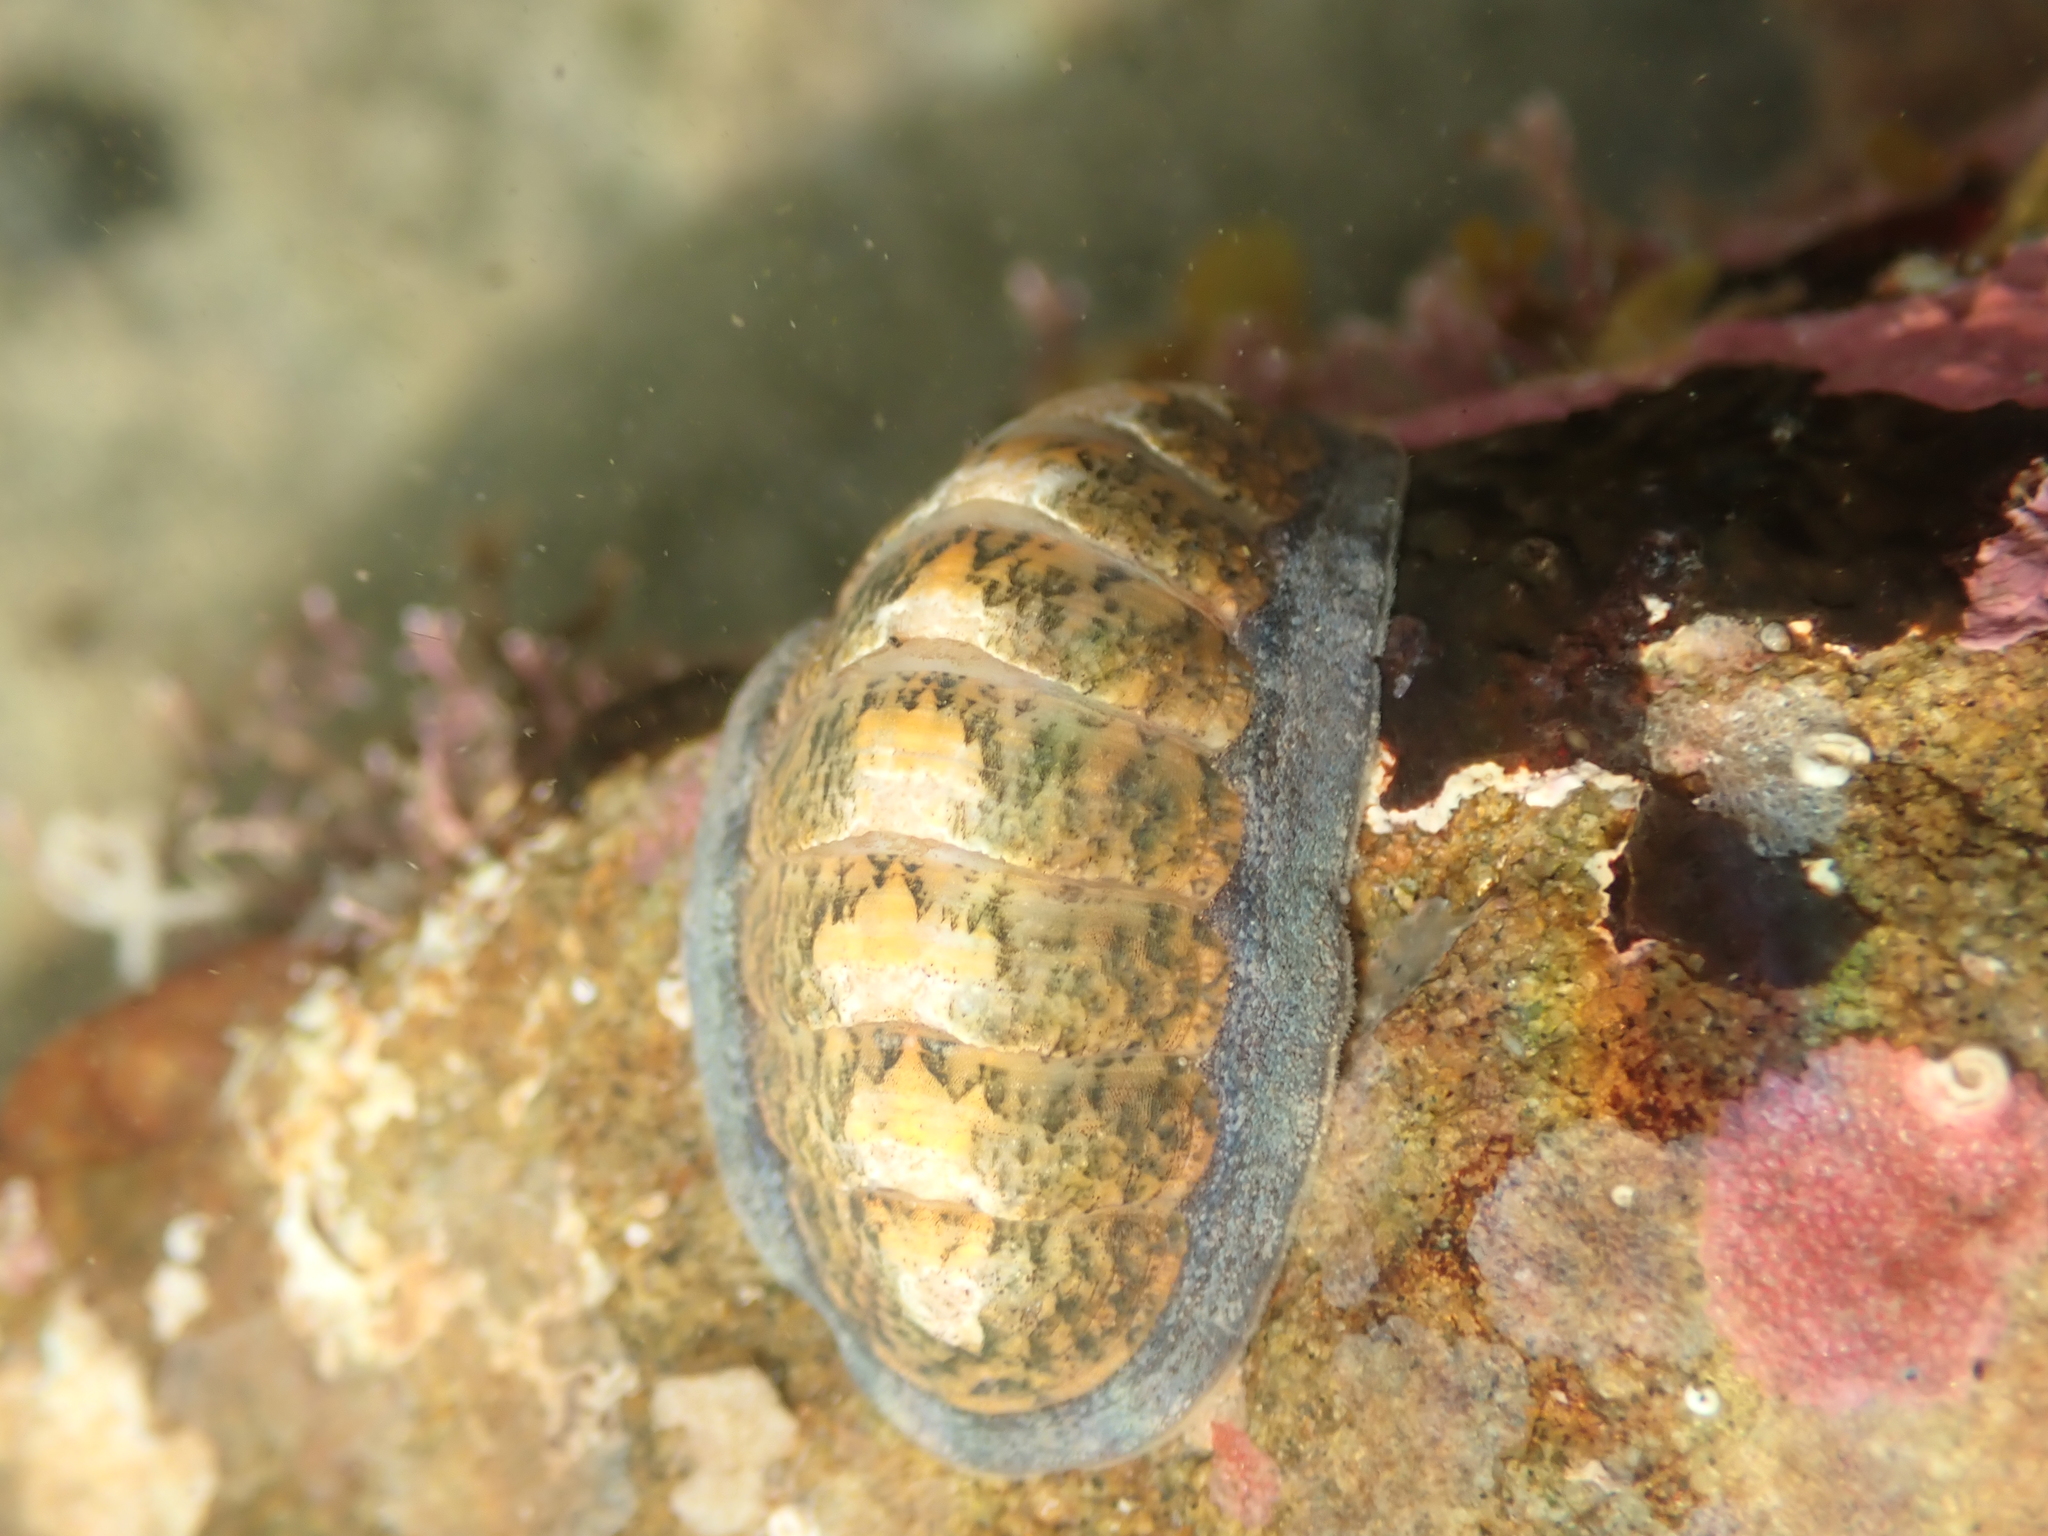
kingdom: Animalia
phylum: Mollusca
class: Polyplacophora
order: Chitonida
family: Ischnochitonidae
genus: Ischnochiton
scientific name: Ischnochiton maorianus
